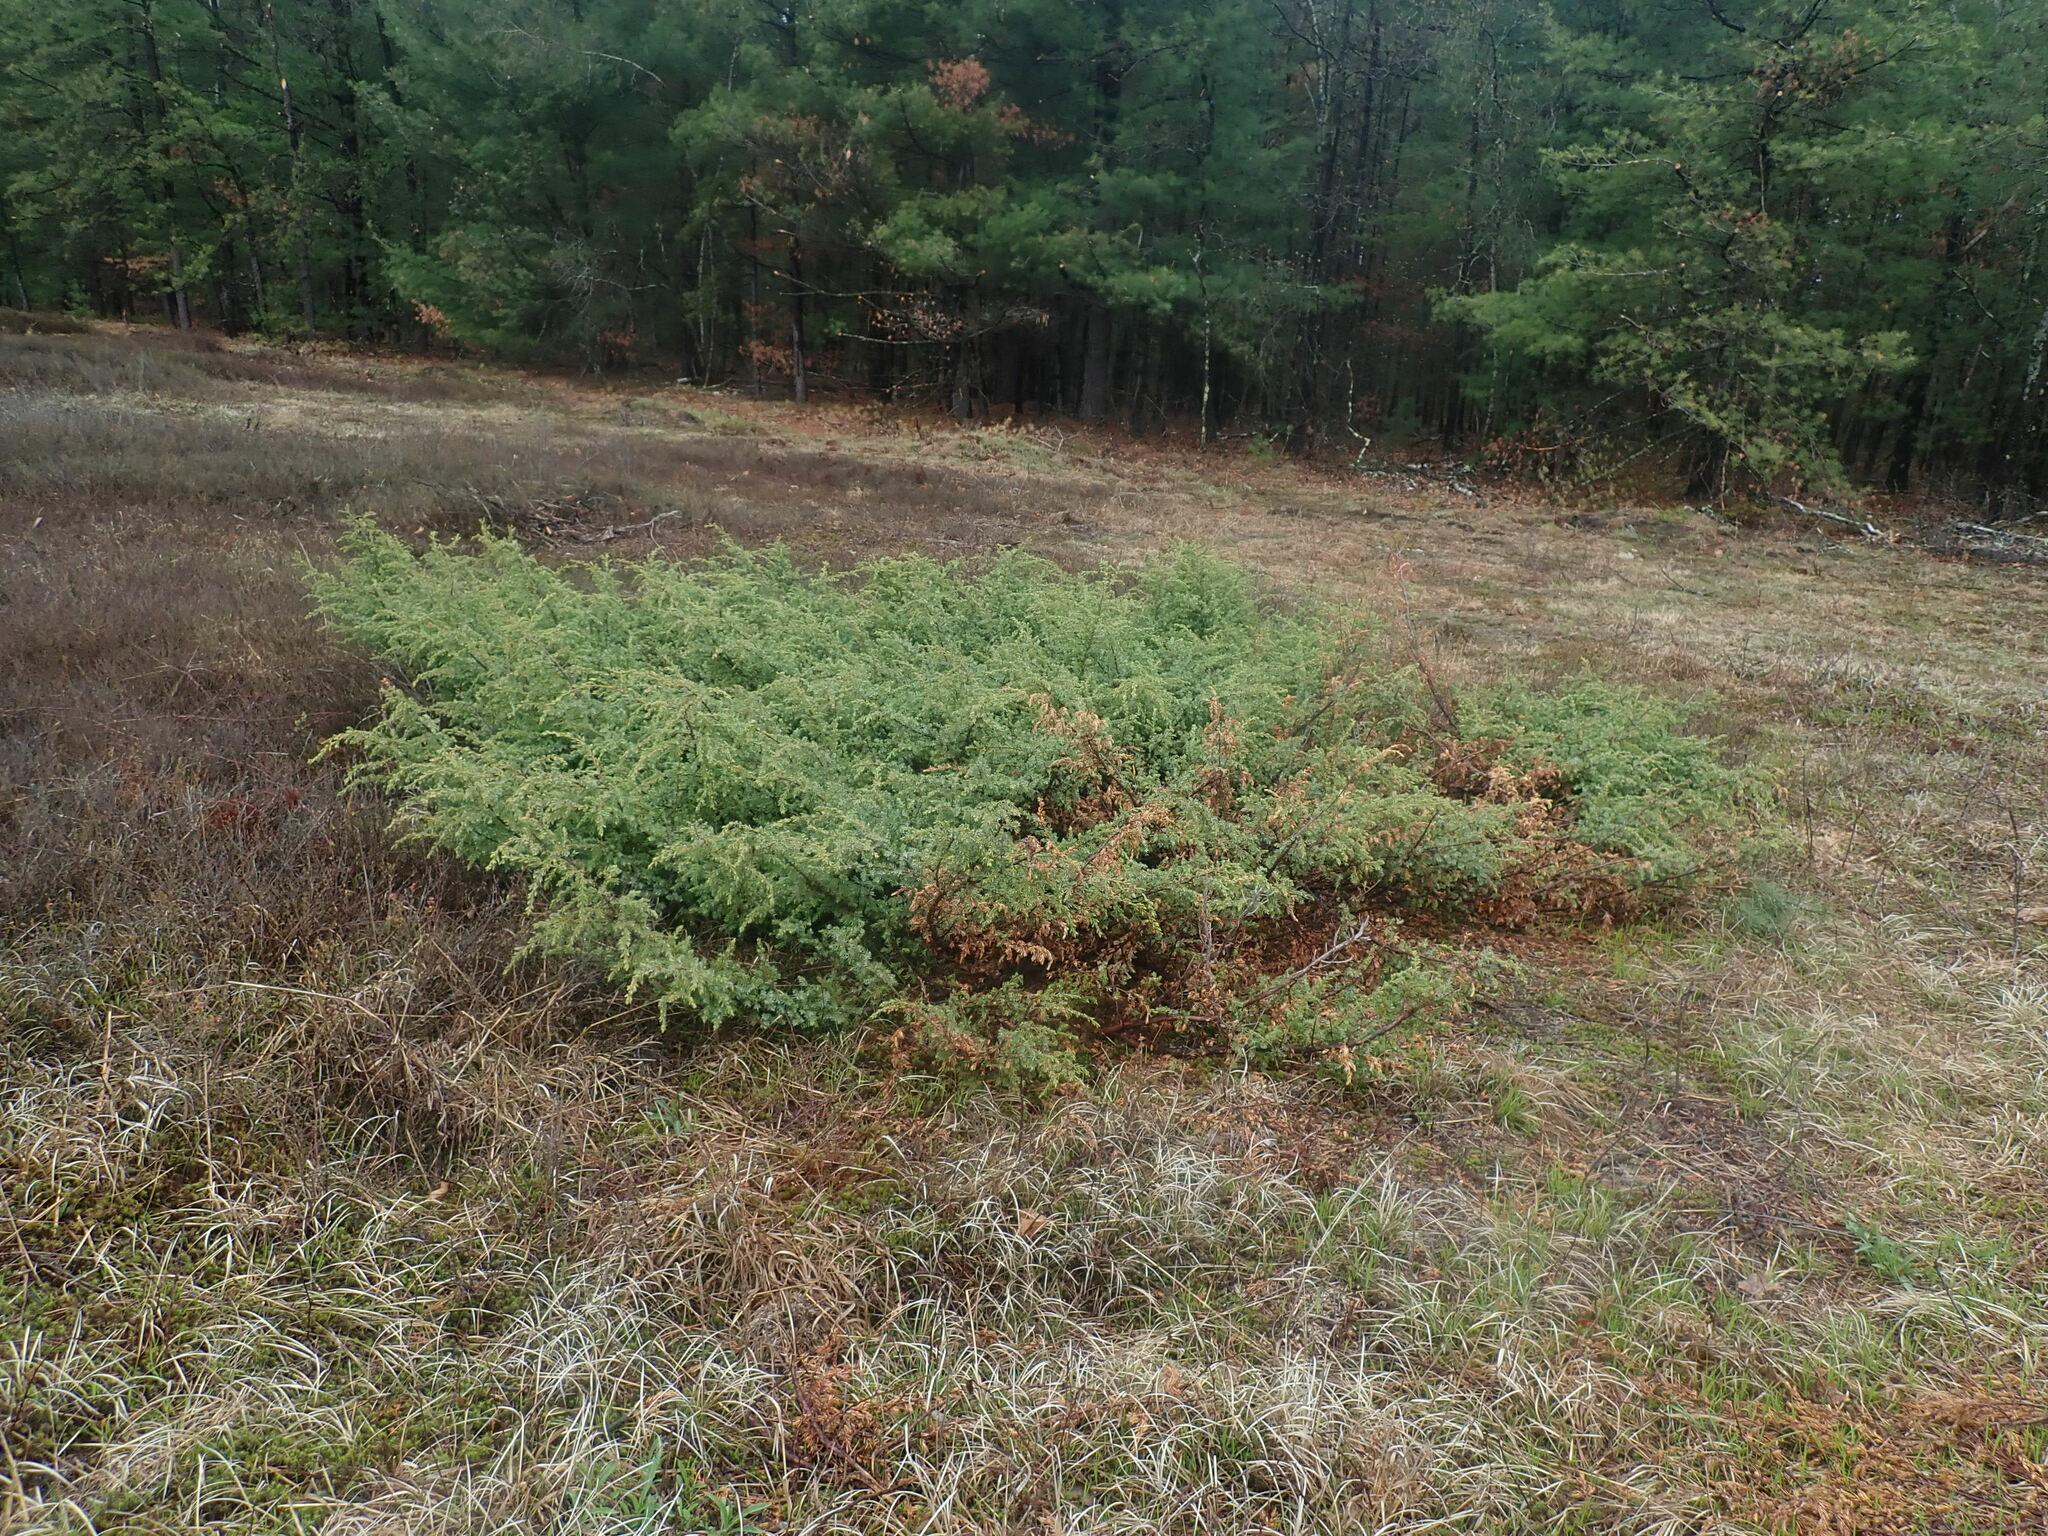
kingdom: Plantae
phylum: Tracheophyta
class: Pinopsida
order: Pinales
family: Cupressaceae
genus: Juniperus
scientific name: Juniperus communis
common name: Common juniper
